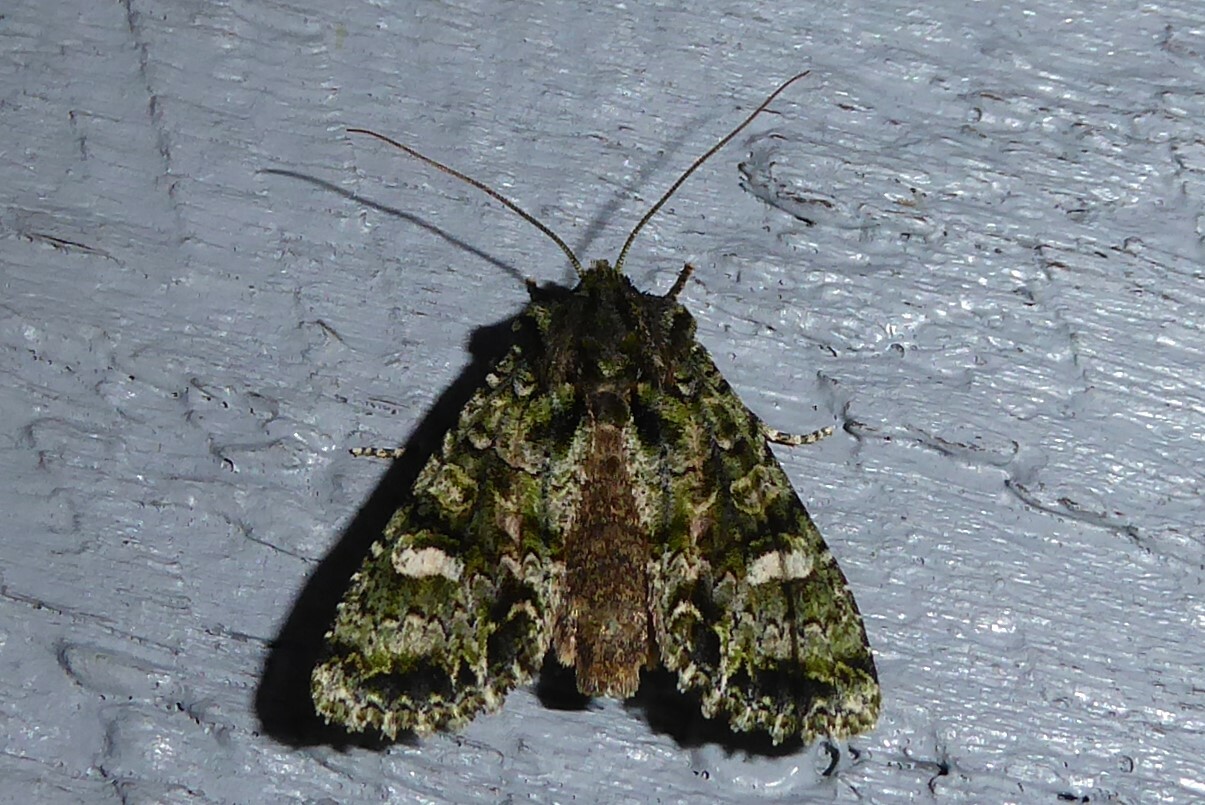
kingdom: Animalia
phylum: Arthropoda
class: Insecta
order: Lepidoptera
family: Noctuidae
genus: Ichneutica
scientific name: Ichneutica
